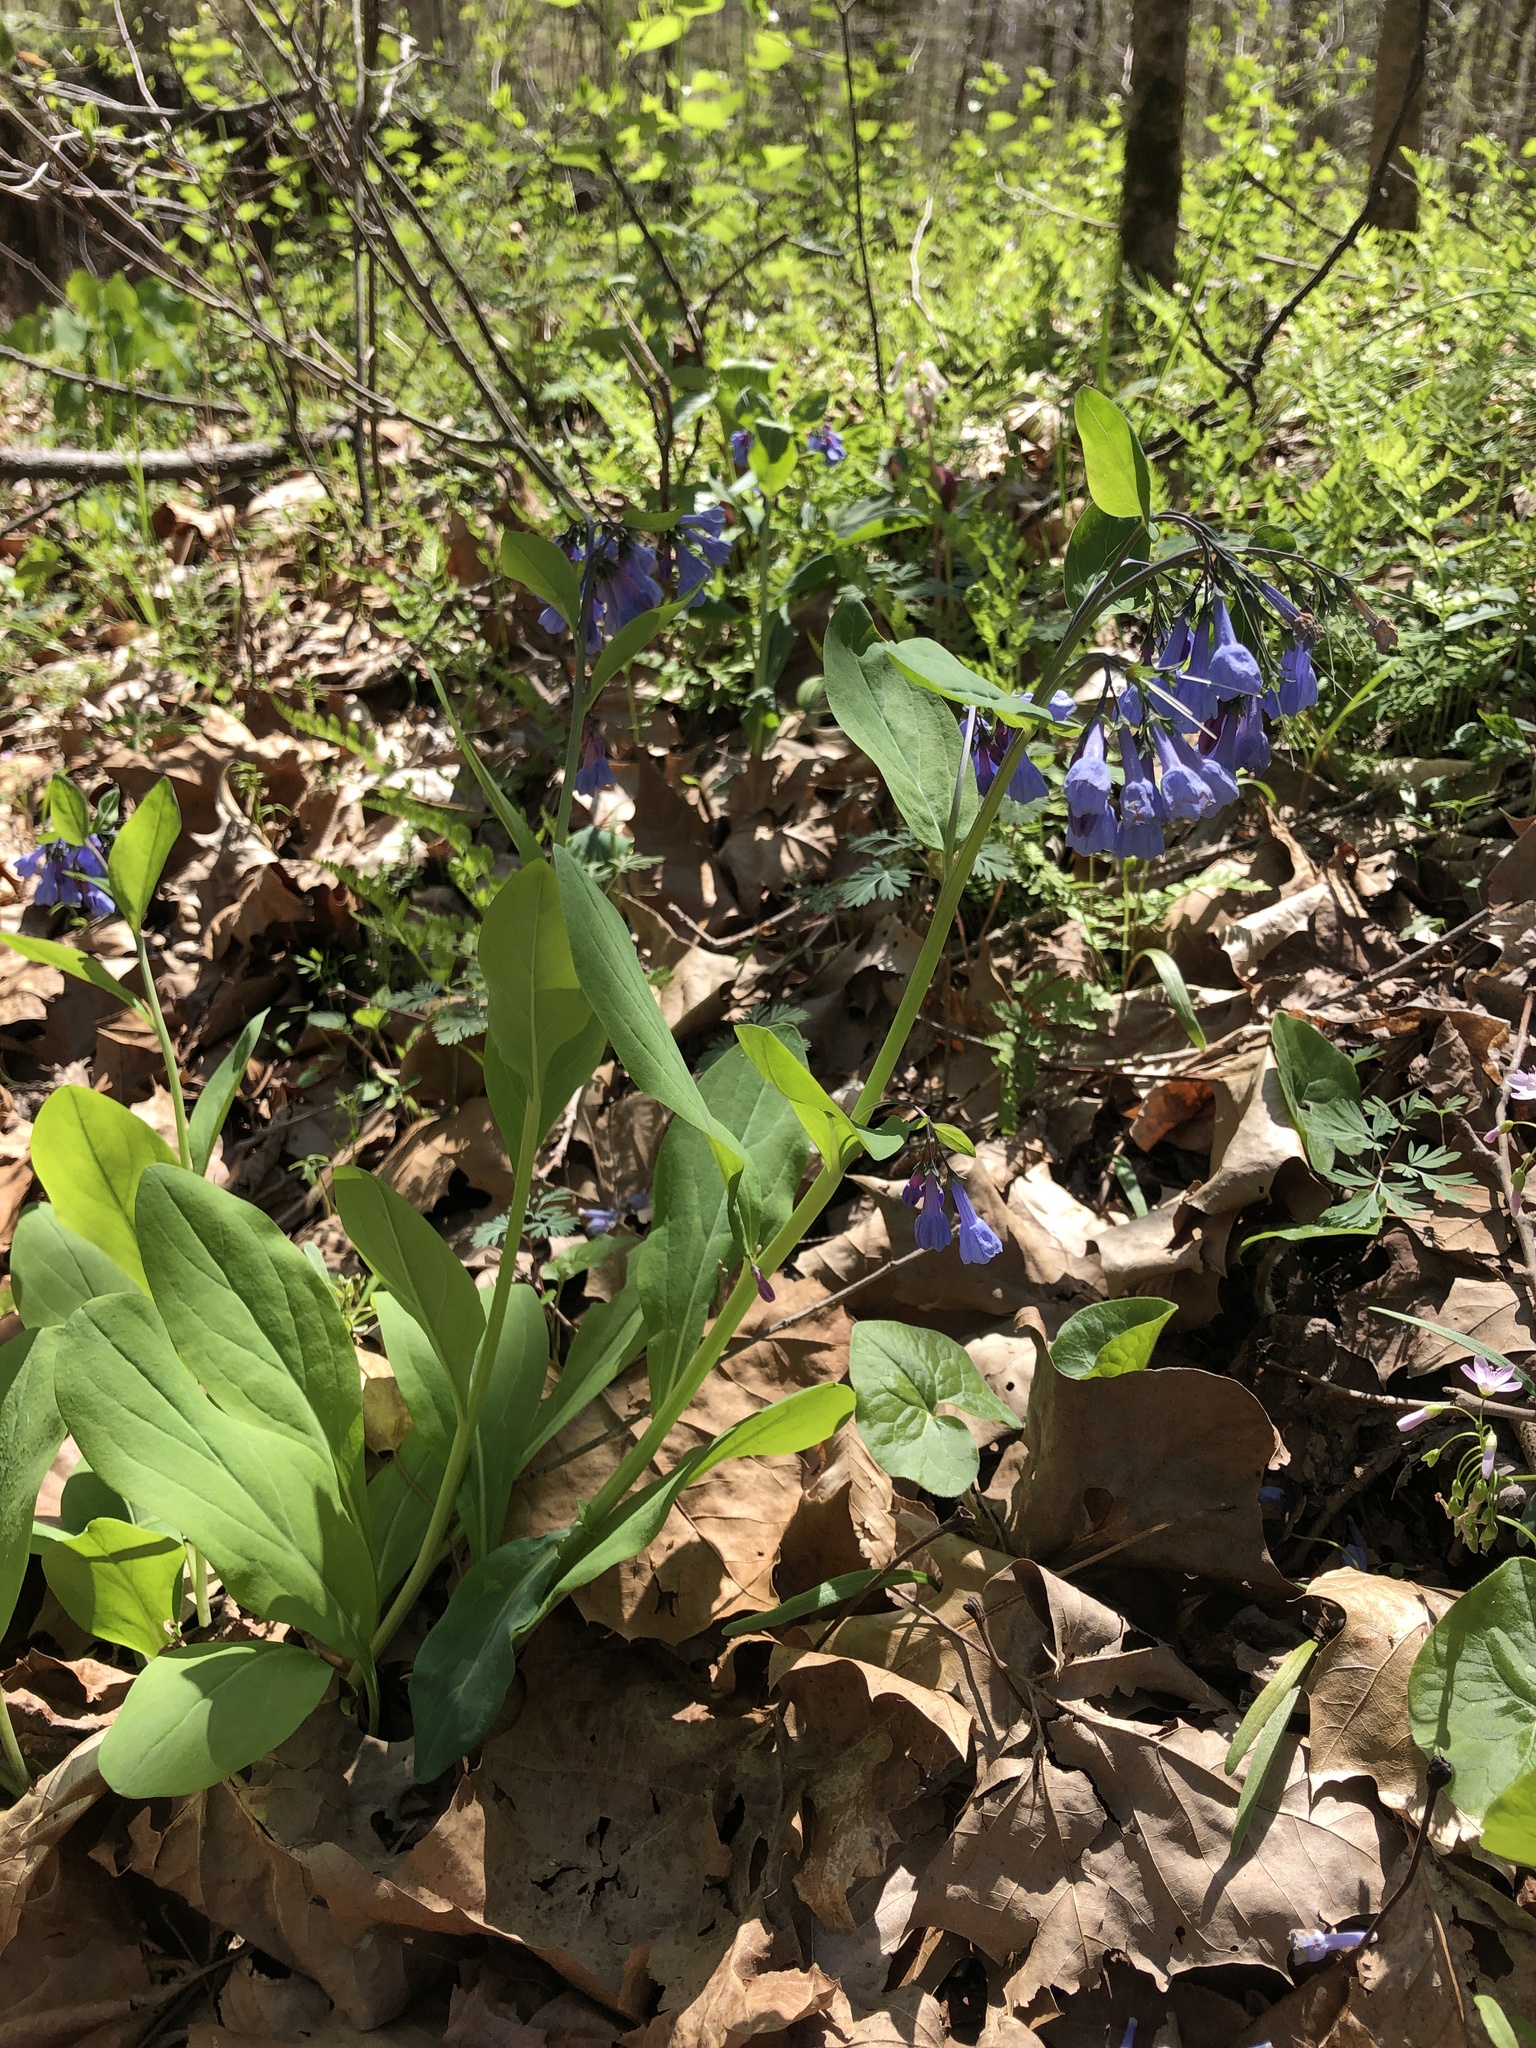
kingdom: Plantae
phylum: Tracheophyta
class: Magnoliopsida
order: Boraginales
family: Boraginaceae
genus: Mertensia
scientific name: Mertensia virginica
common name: Virginia bluebells
